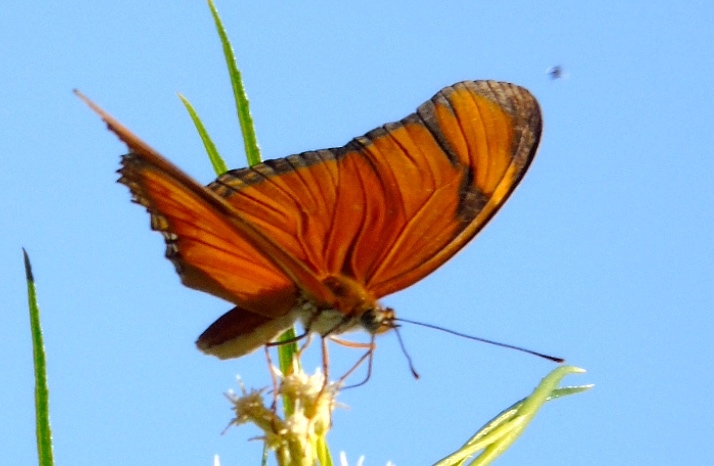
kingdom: Animalia
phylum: Arthropoda
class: Insecta
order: Lepidoptera
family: Nymphalidae
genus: Dryas
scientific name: Dryas iulia
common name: Flambeau
